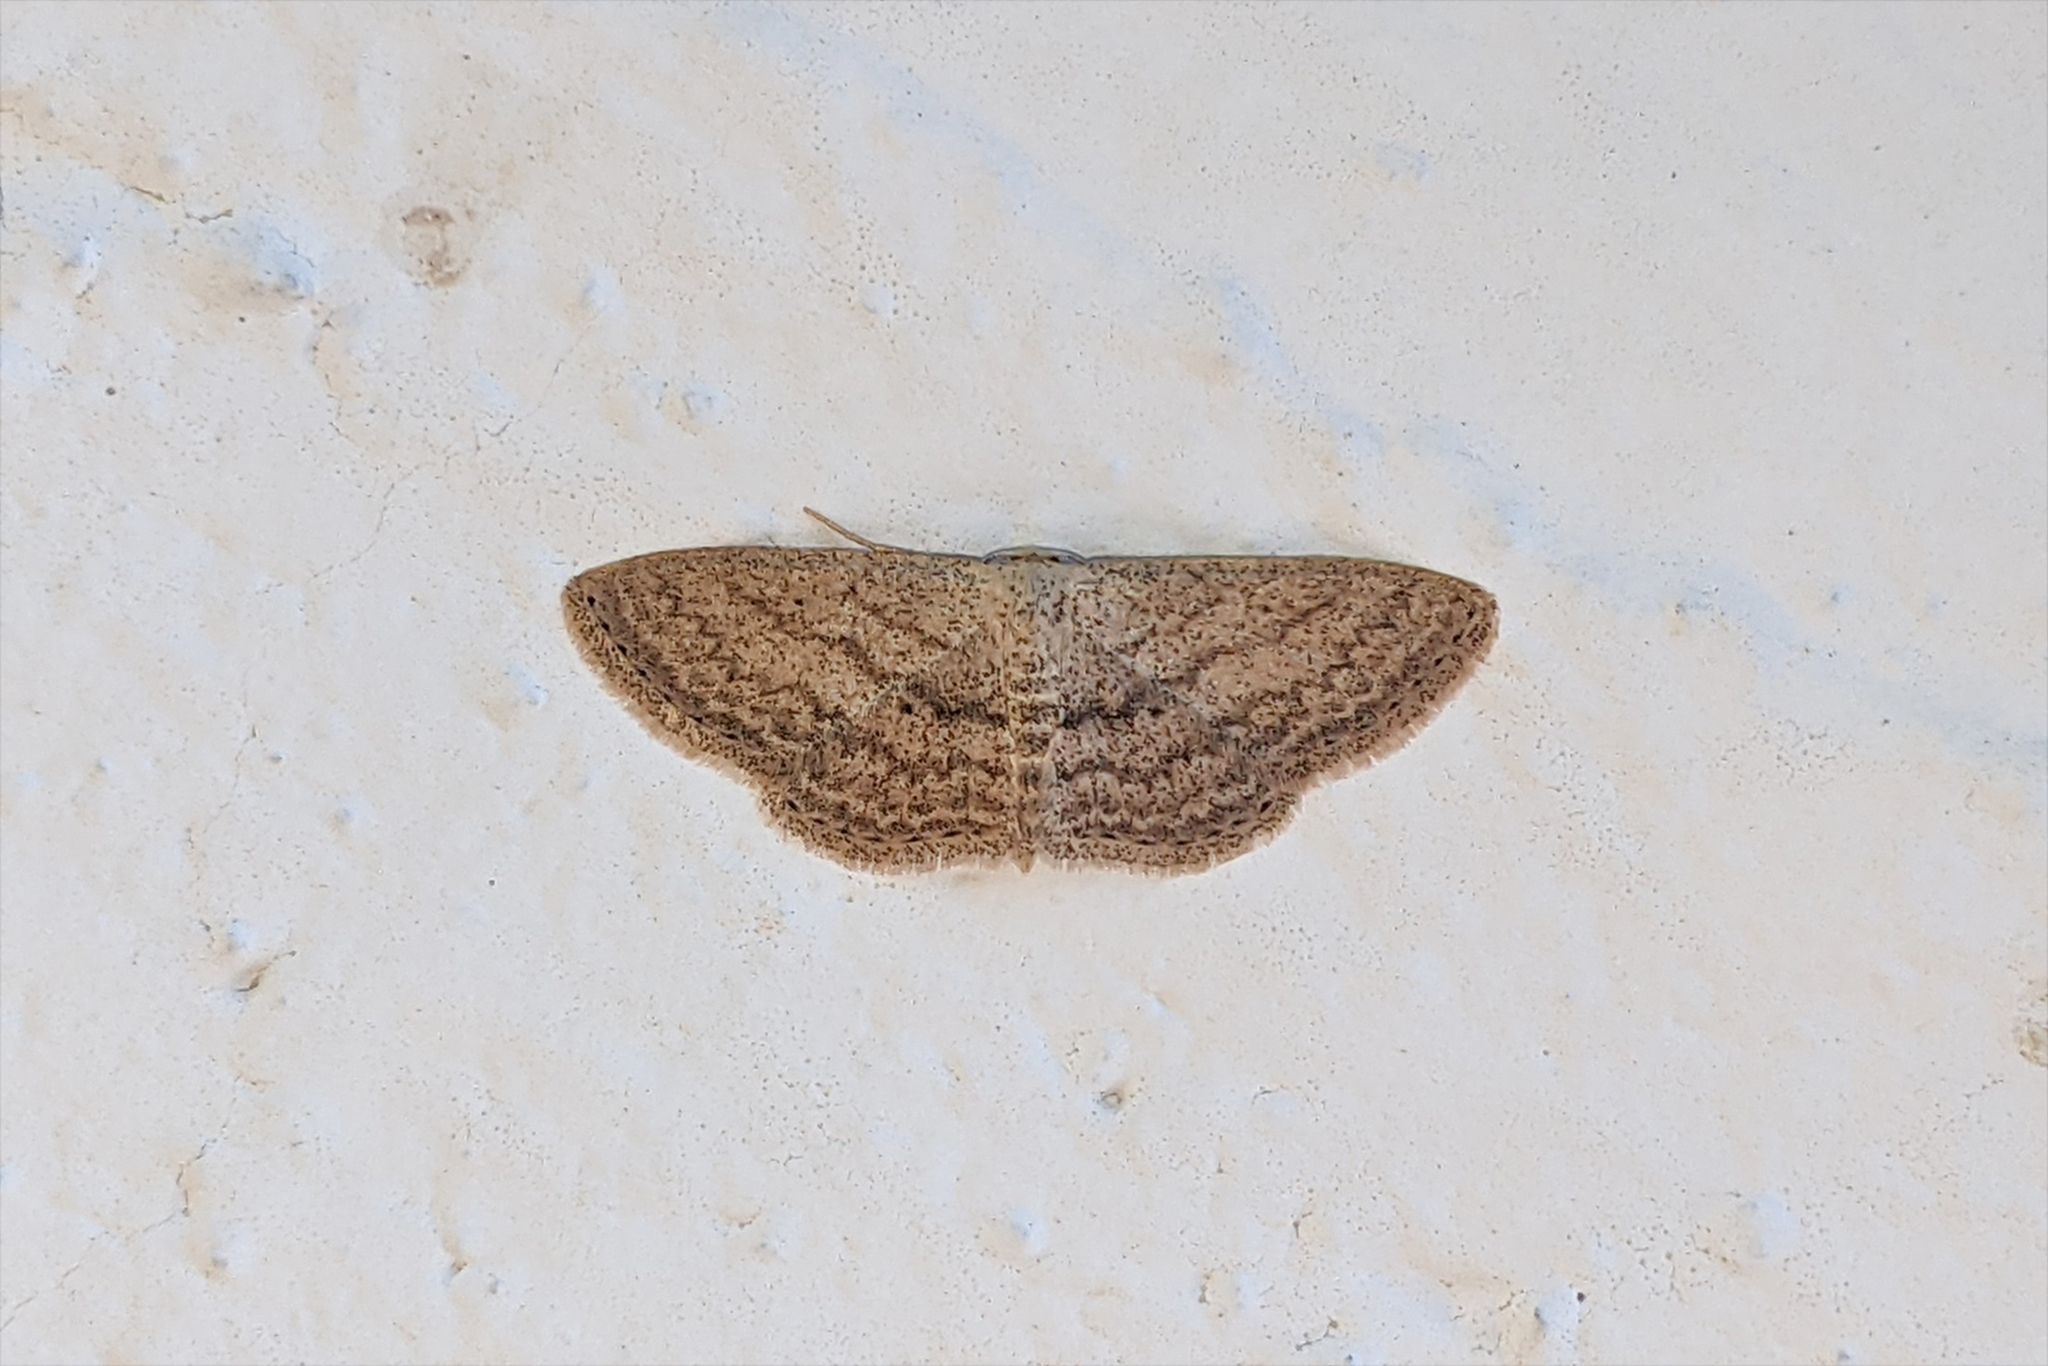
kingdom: Animalia
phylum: Arthropoda
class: Insecta
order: Lepidoptera
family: Geometridae
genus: Scopula
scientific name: Scopula minorata
